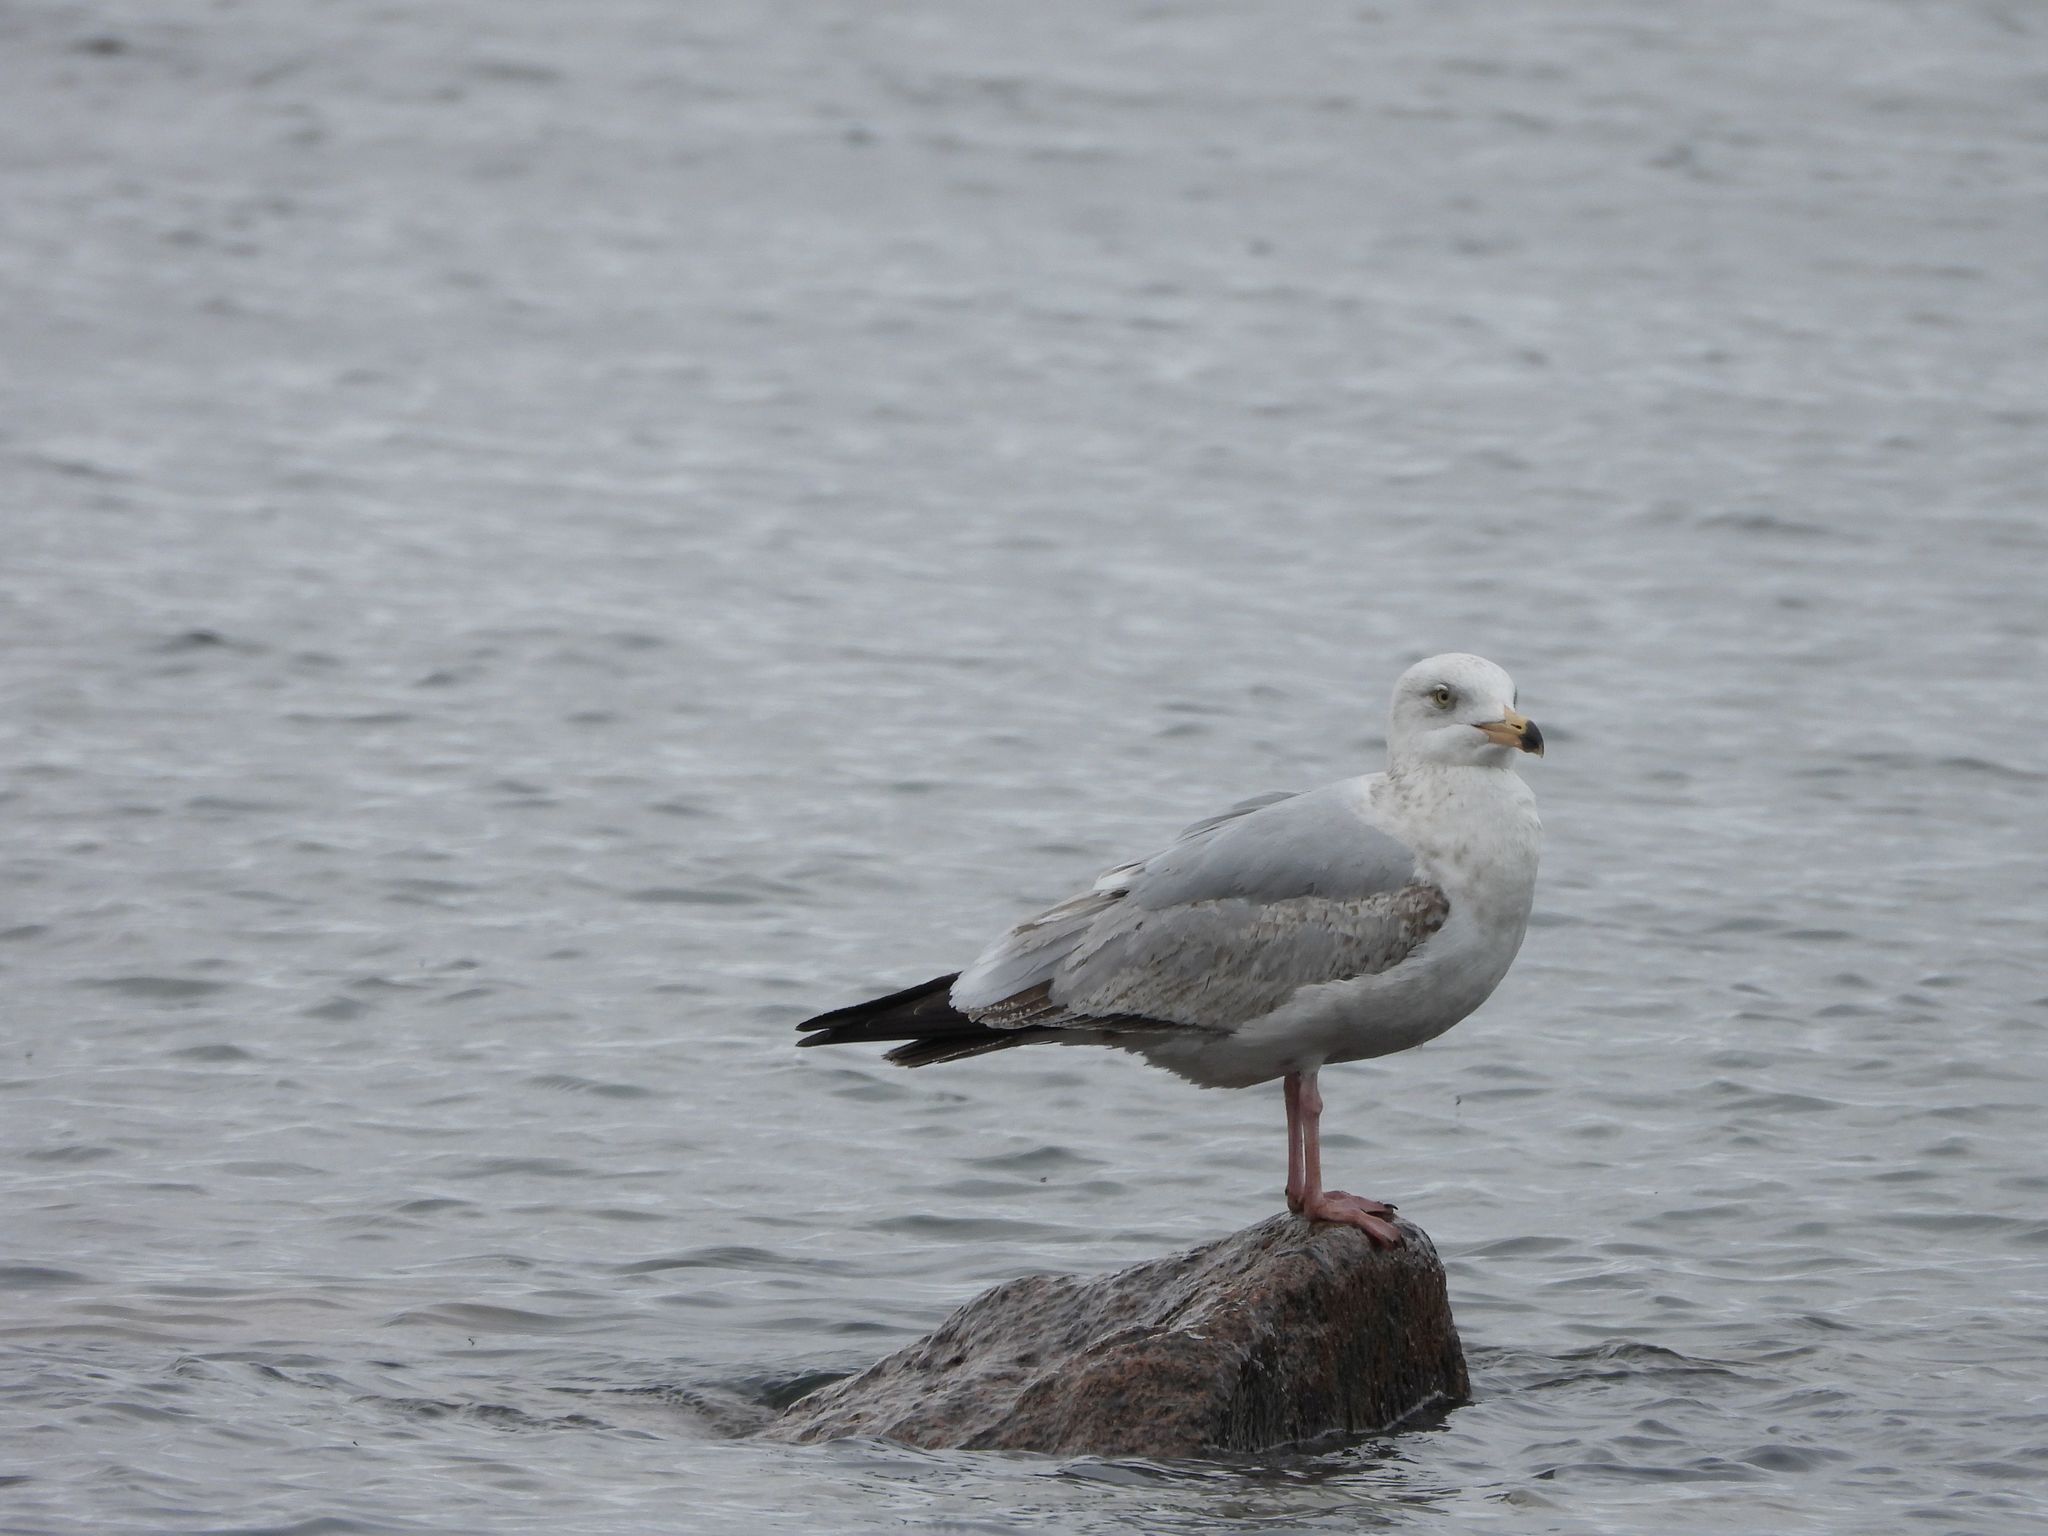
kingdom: Animalia
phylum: Chordata
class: Aves
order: Charadriiformes
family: Laridae
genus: Larus
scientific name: Larus argentatus
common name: Herring gull
